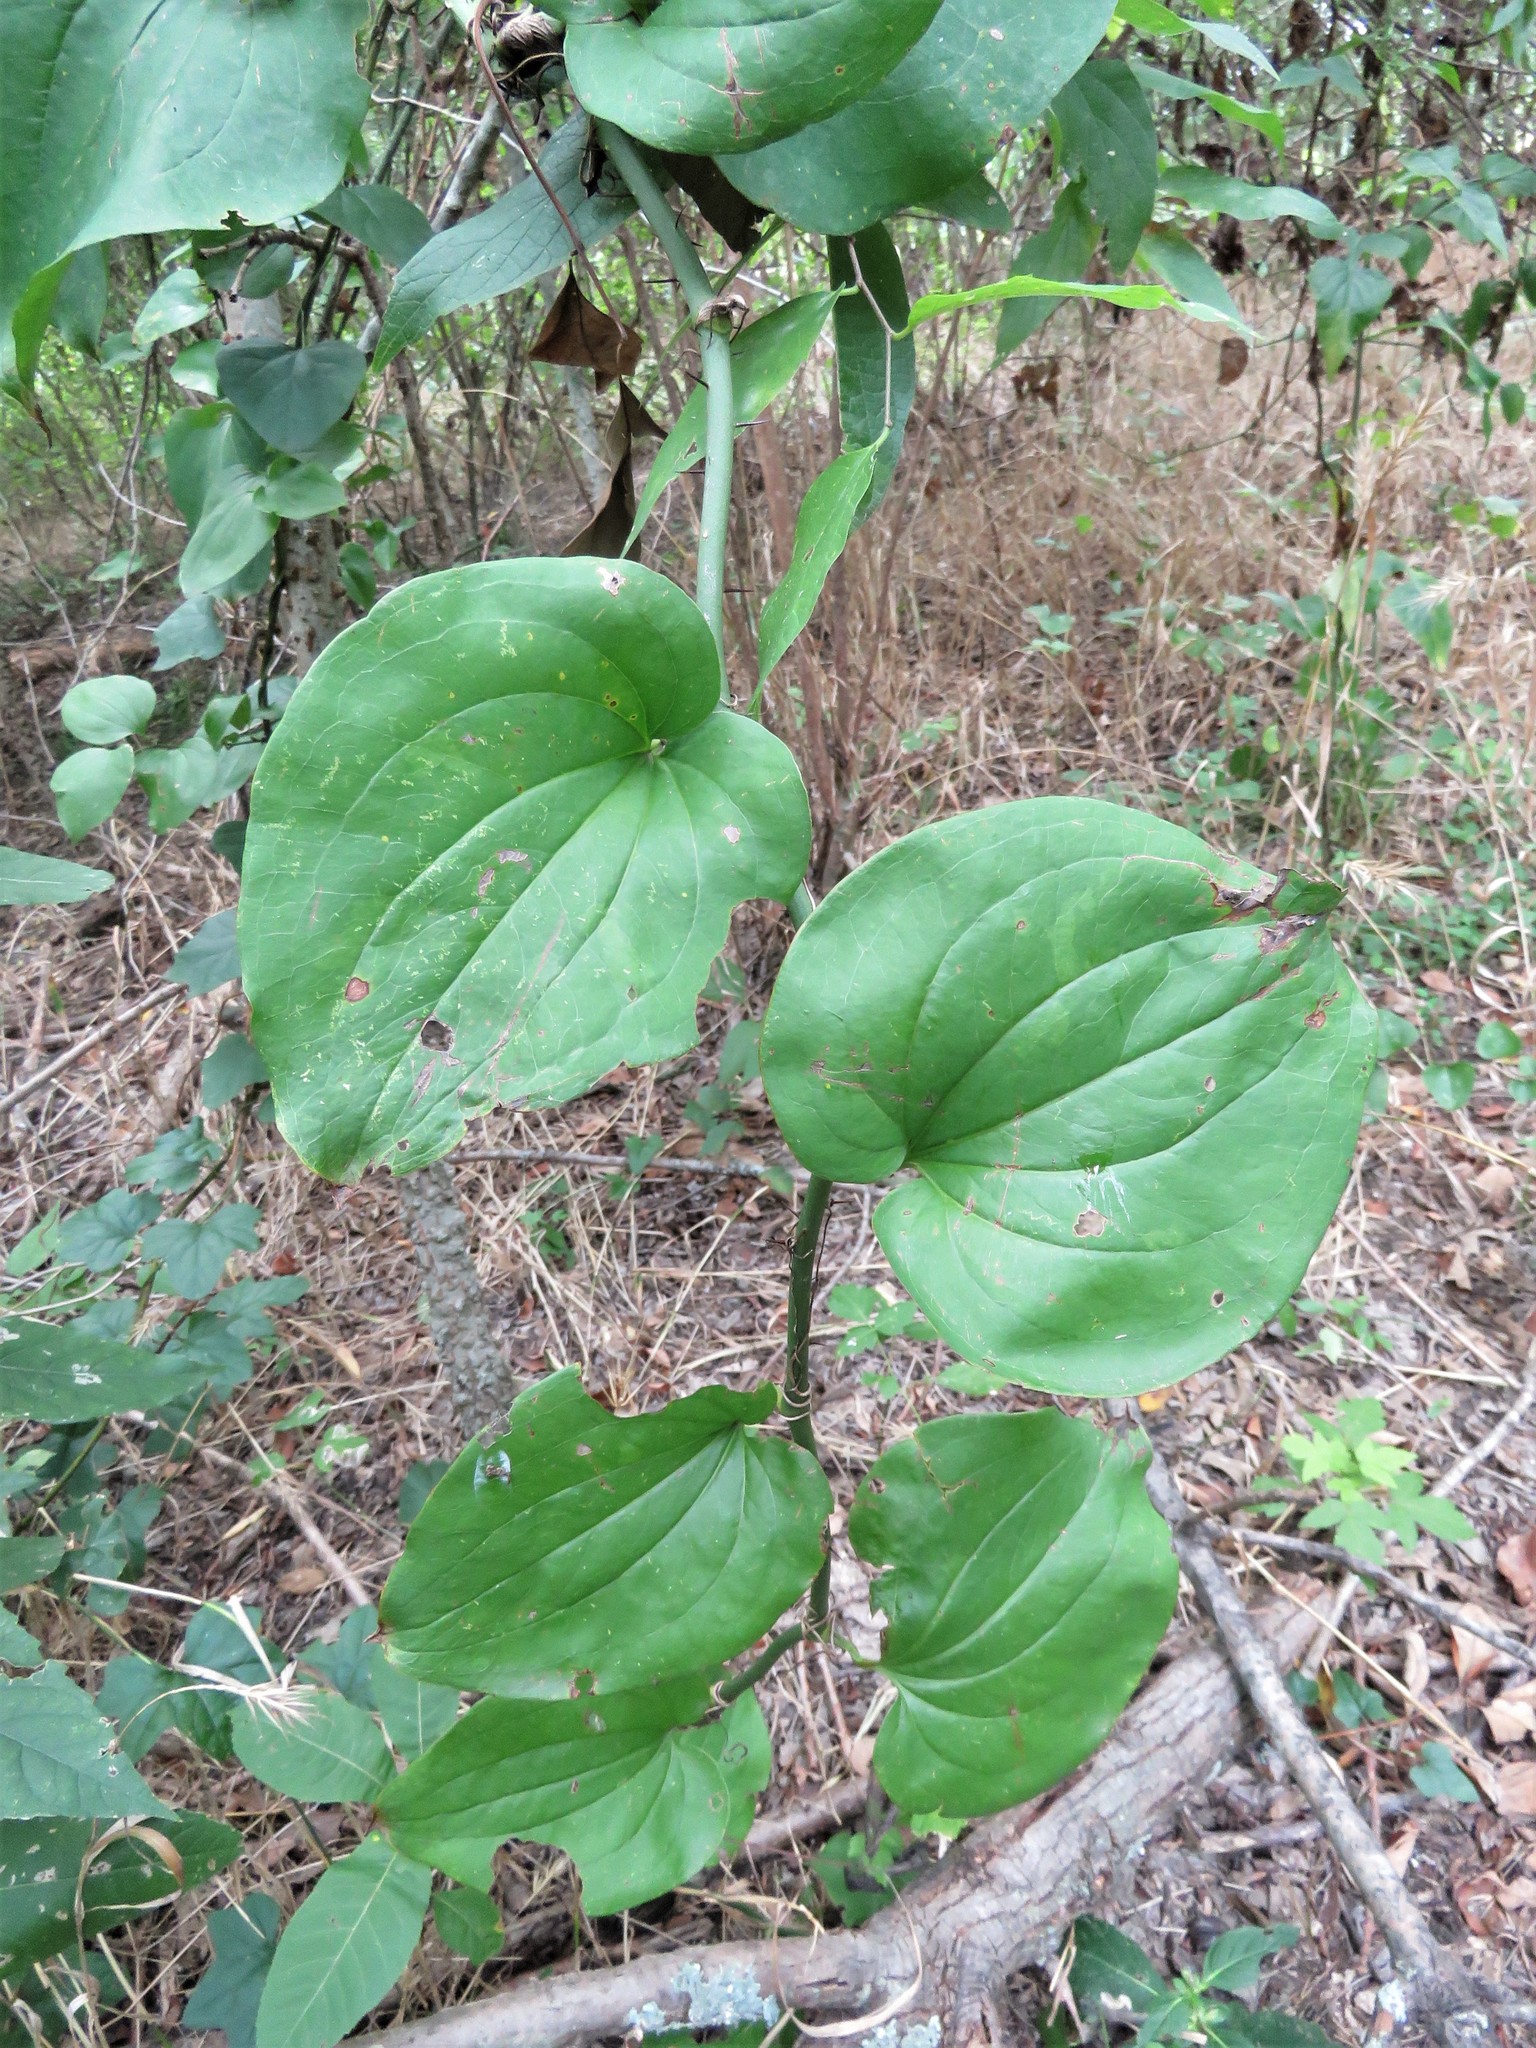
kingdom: Plantae
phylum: Tracheophyta
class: Liliopsida
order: Liliales
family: Smilacaceae
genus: Smilax
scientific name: Smilax tamnoides
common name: Hellfetter
